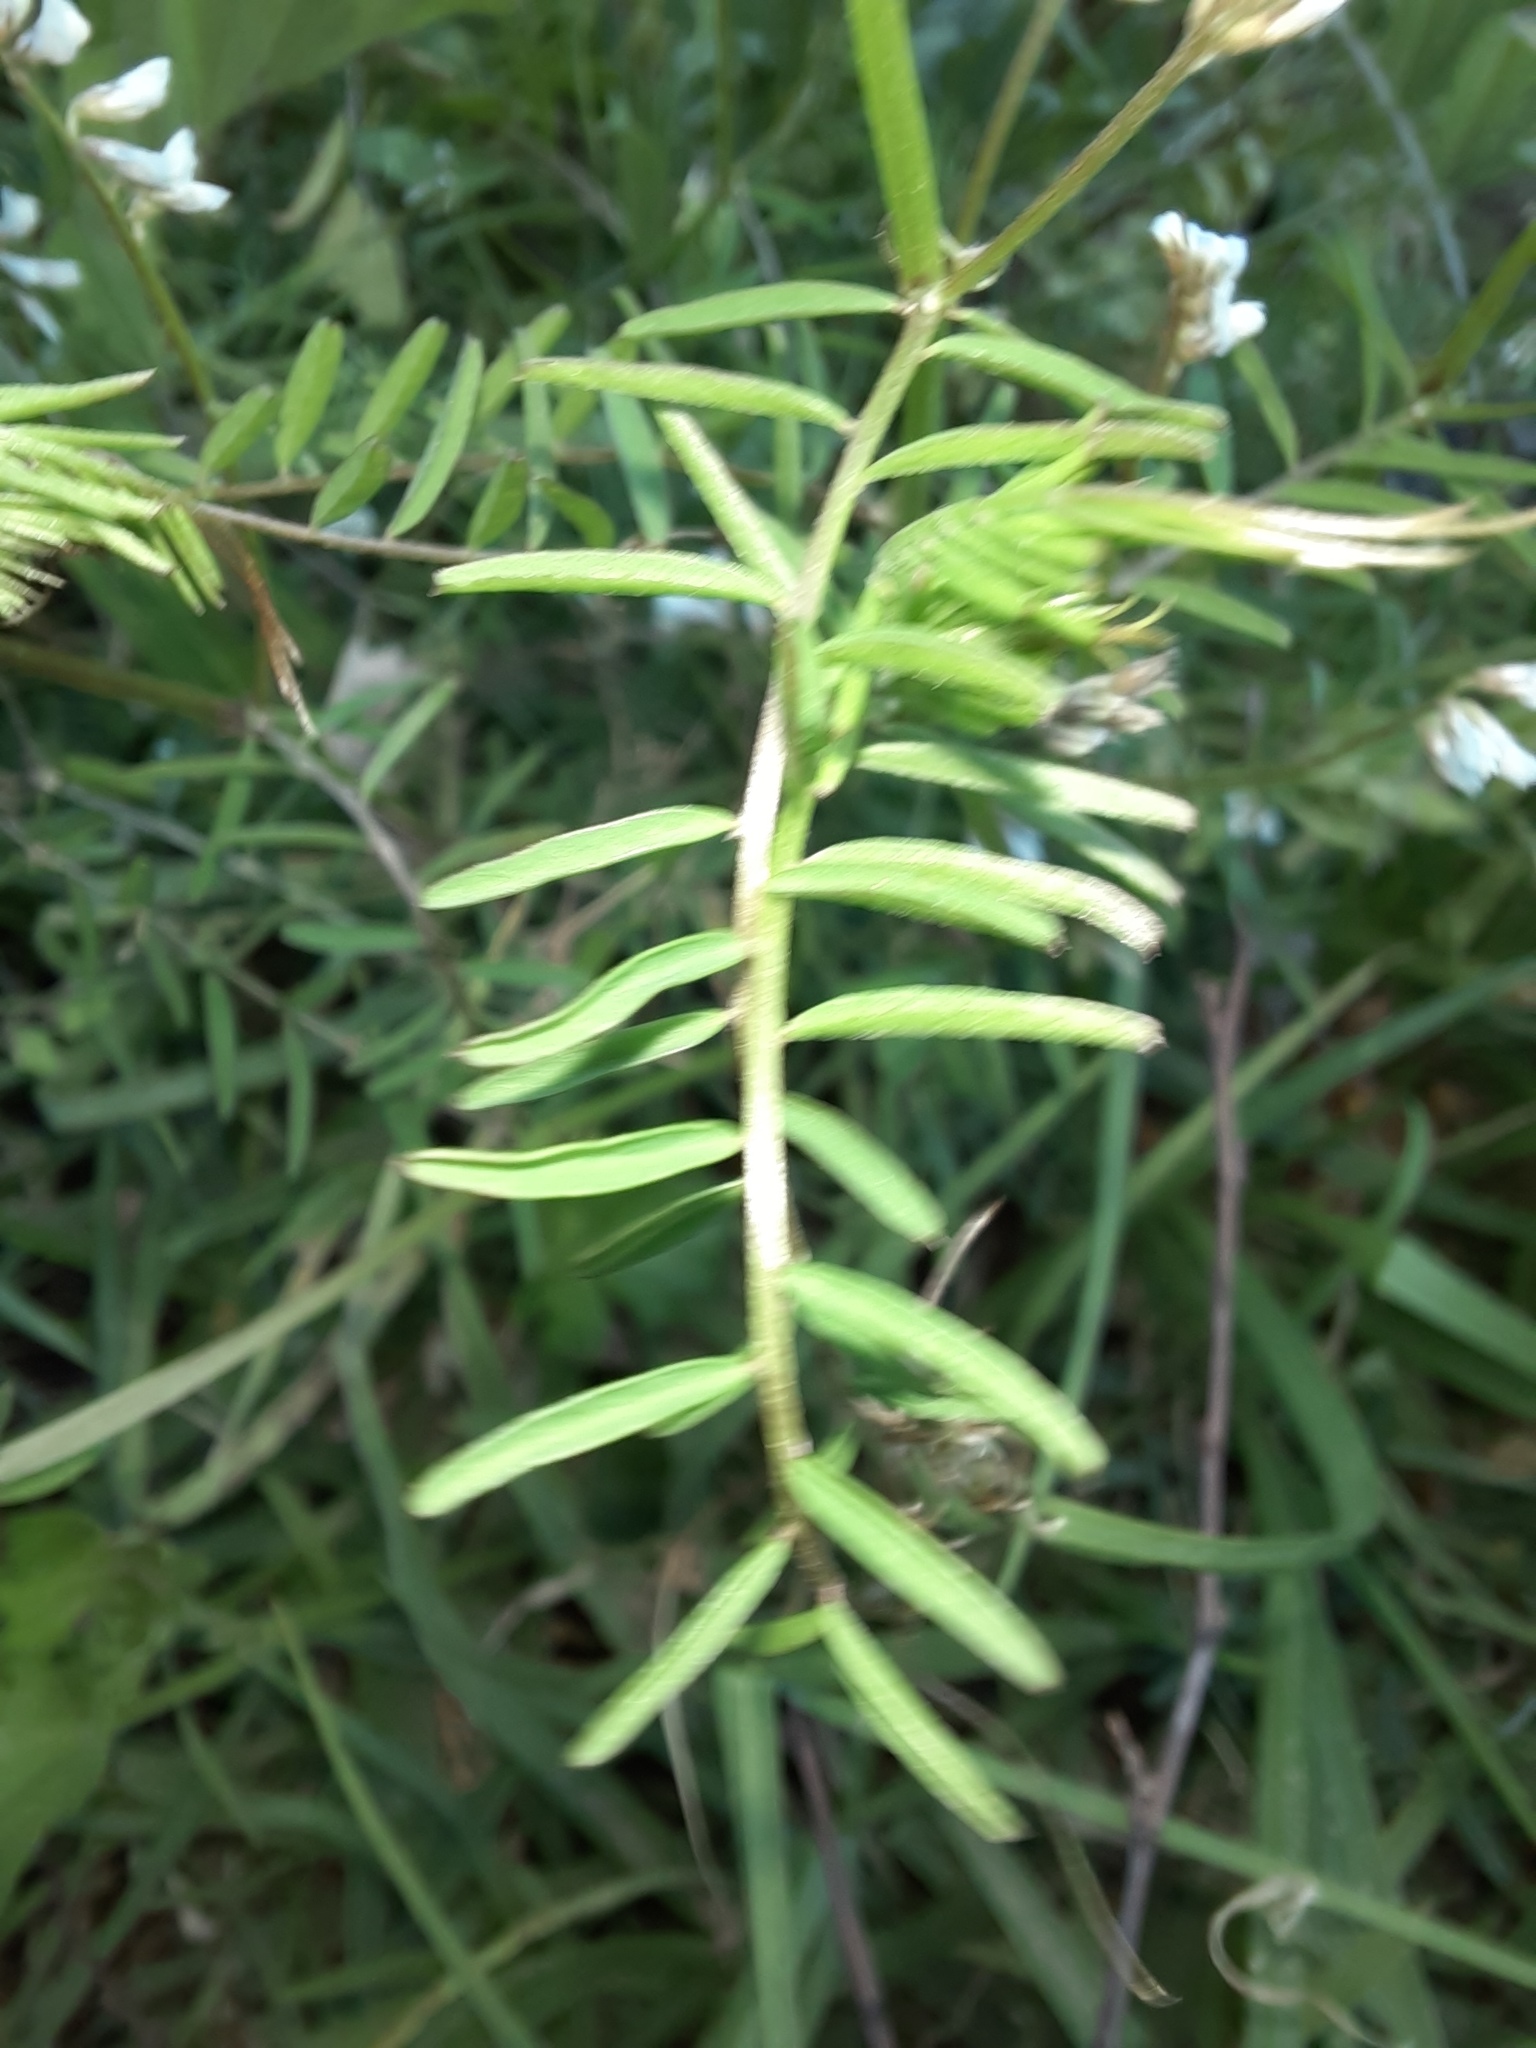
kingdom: Plantae
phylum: Tracheophyta
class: Magnoliopsida
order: Fabales
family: Fabaceae
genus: Vicia
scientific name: Vicia hirsuta
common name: Tiny vetch
